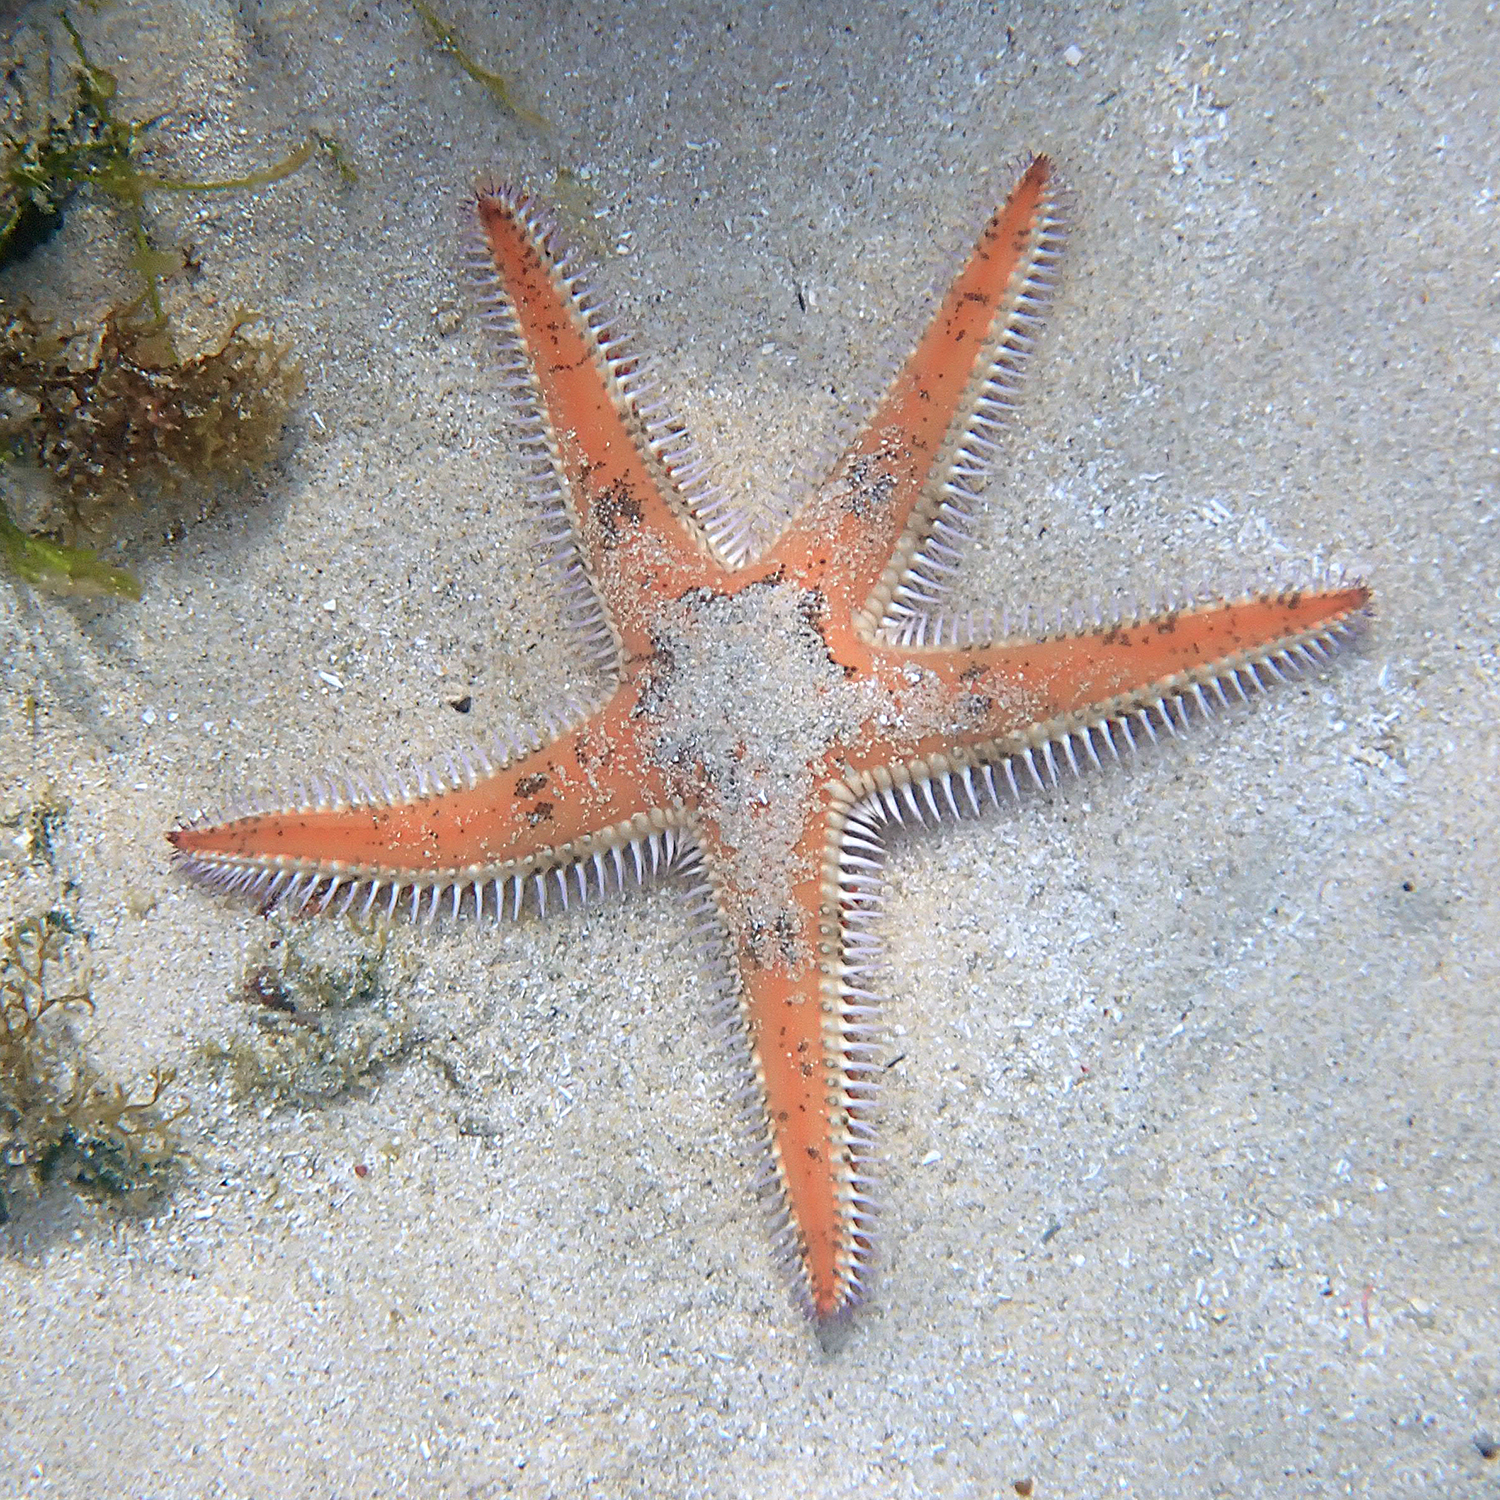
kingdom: Animalia
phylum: Echinodermata
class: Asteroidea
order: Paxillosida
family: Astropectinidae
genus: Astropecten
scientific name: Astropecten polyacanthus
